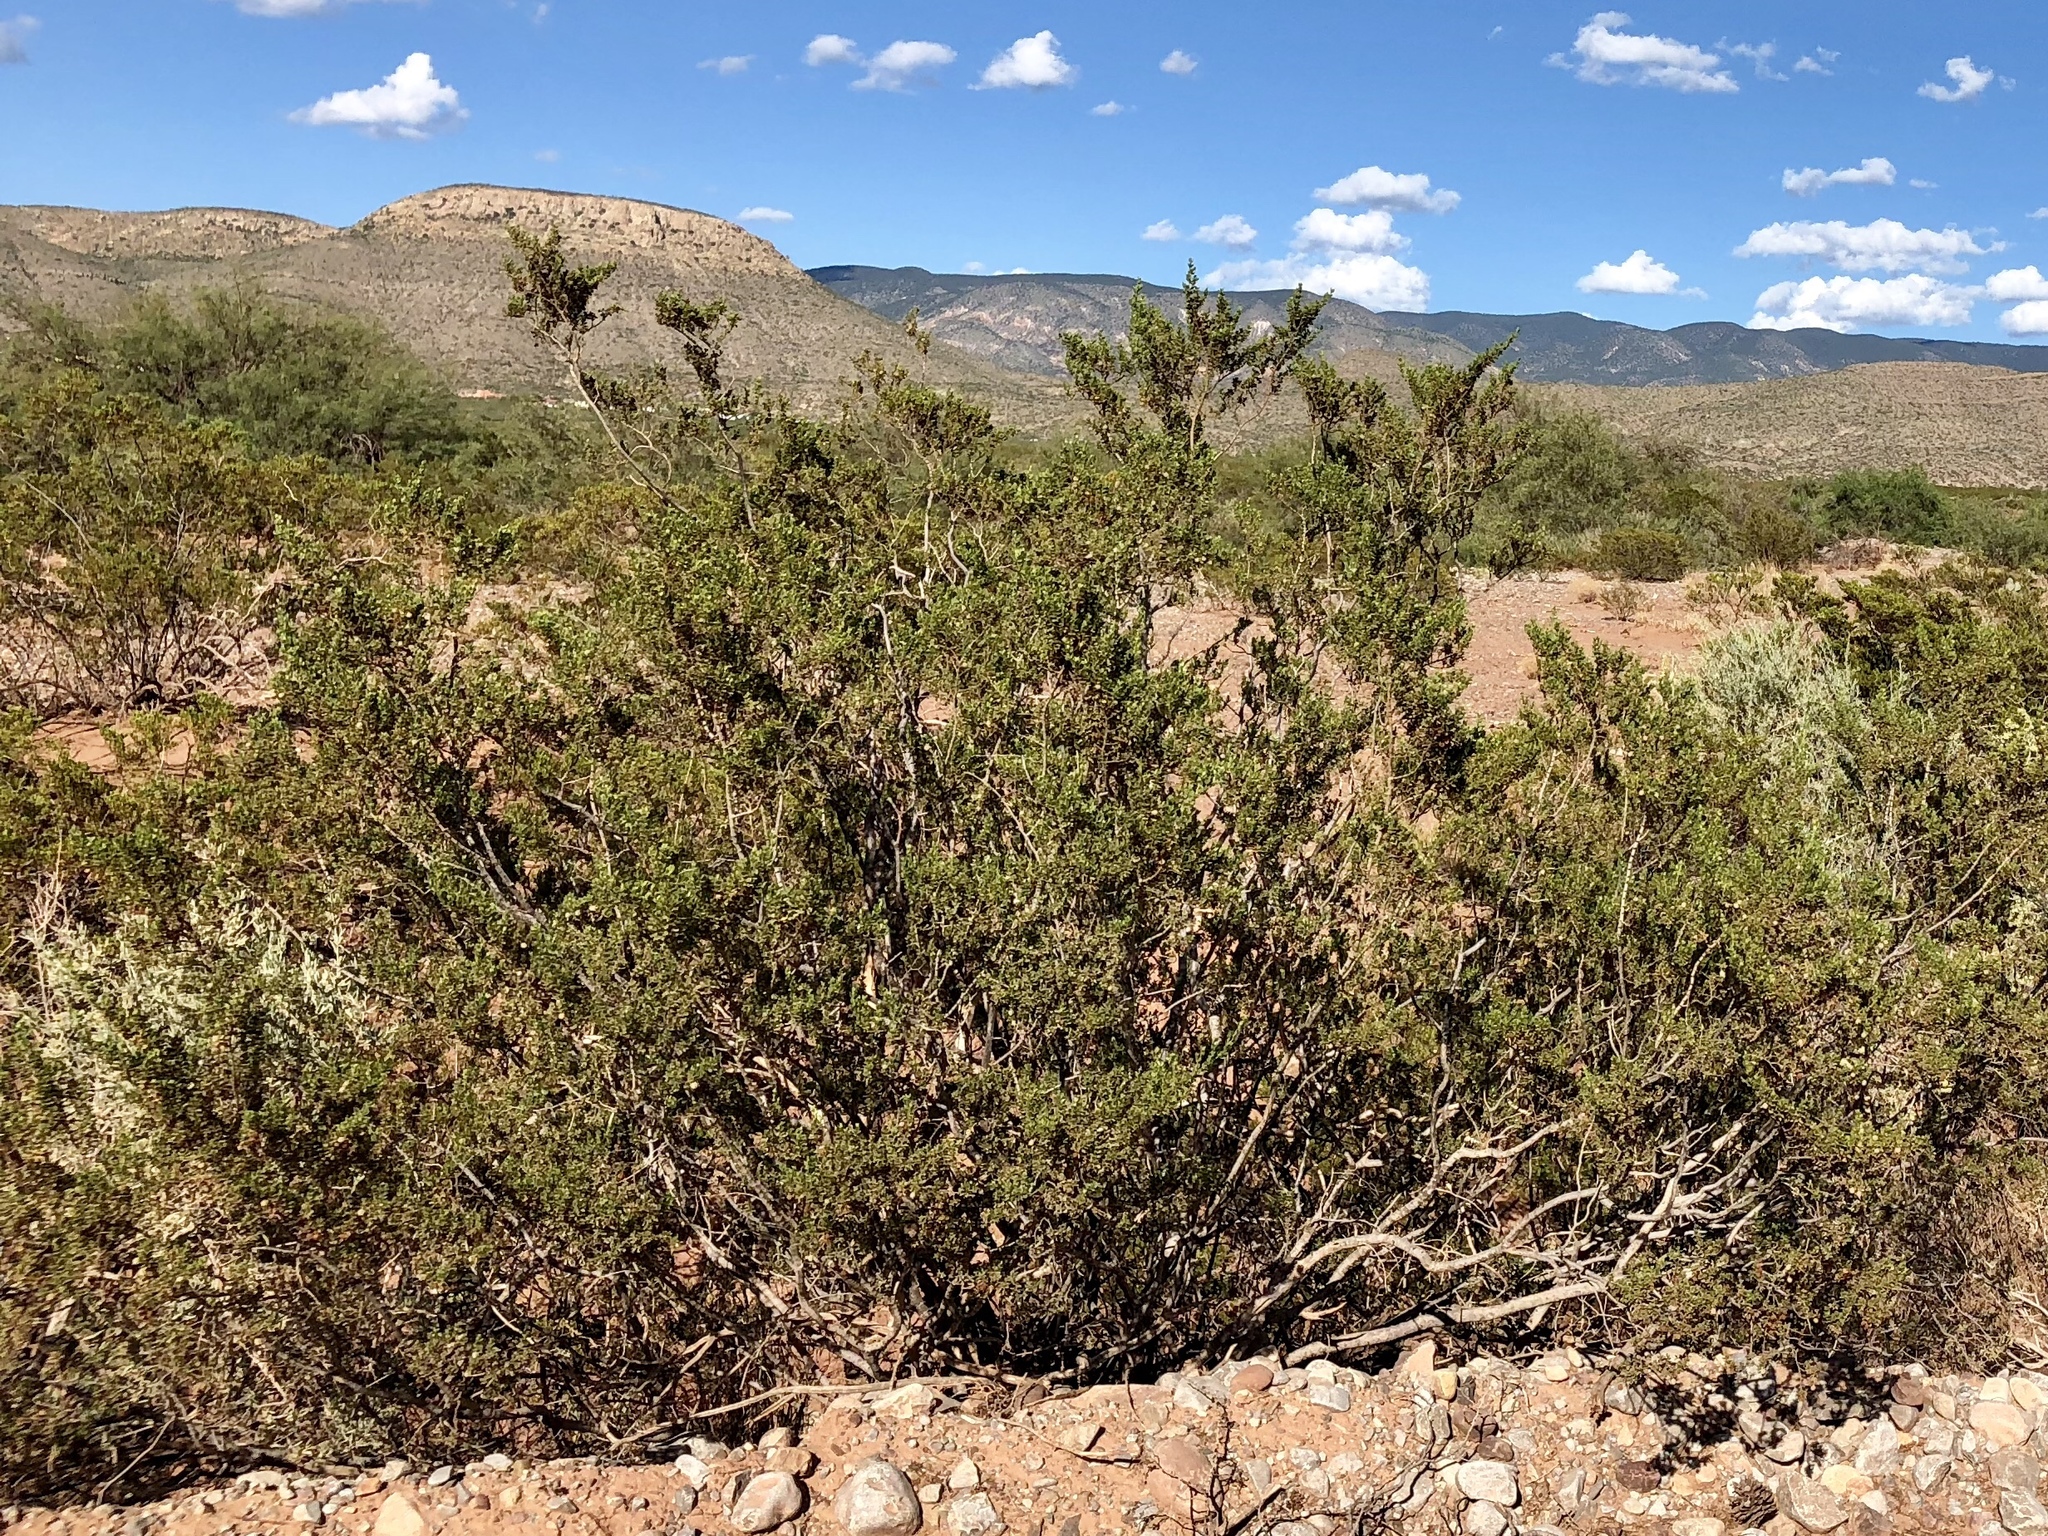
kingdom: Plantae
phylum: Tracheophyta
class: Magnoliopsida
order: Zygophyllales
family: Zygophyllaceae
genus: Larrea
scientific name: Larrea tridentata
